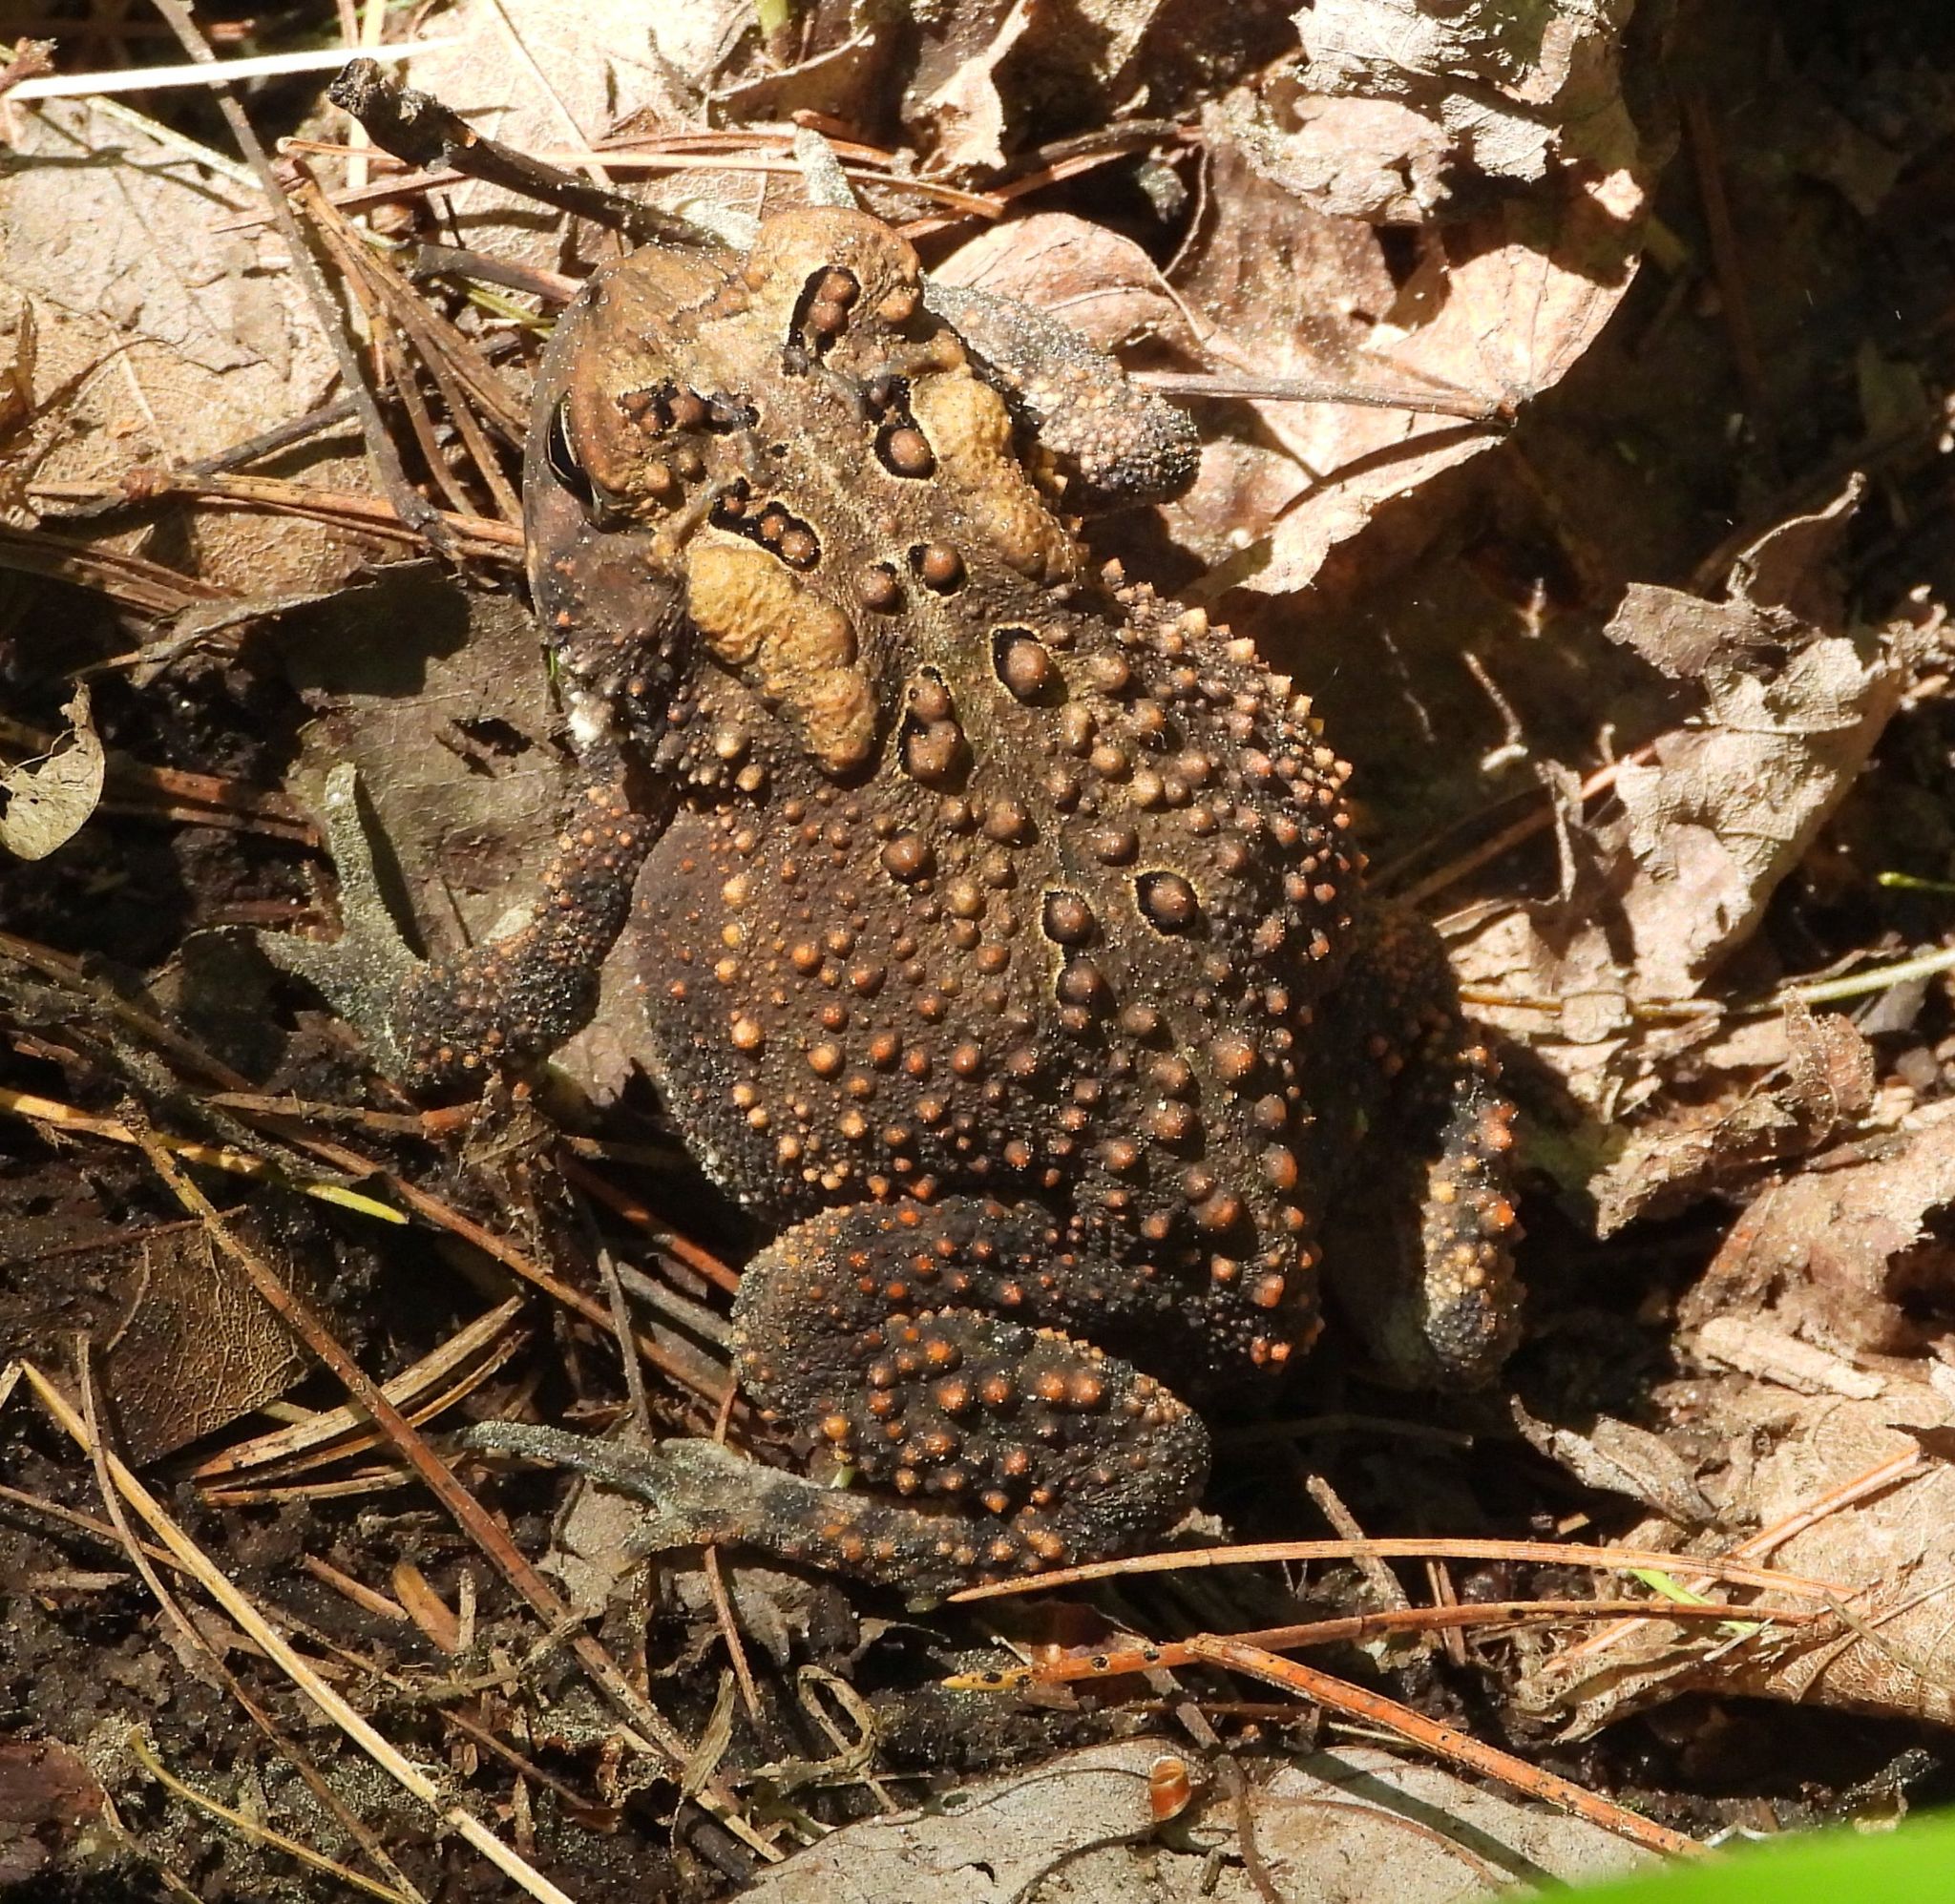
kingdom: Animalia
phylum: Chordata
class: Amphibia
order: Anura
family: Bufonidae
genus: Anaxyrus
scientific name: Anaxyrus americanus
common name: American toad
